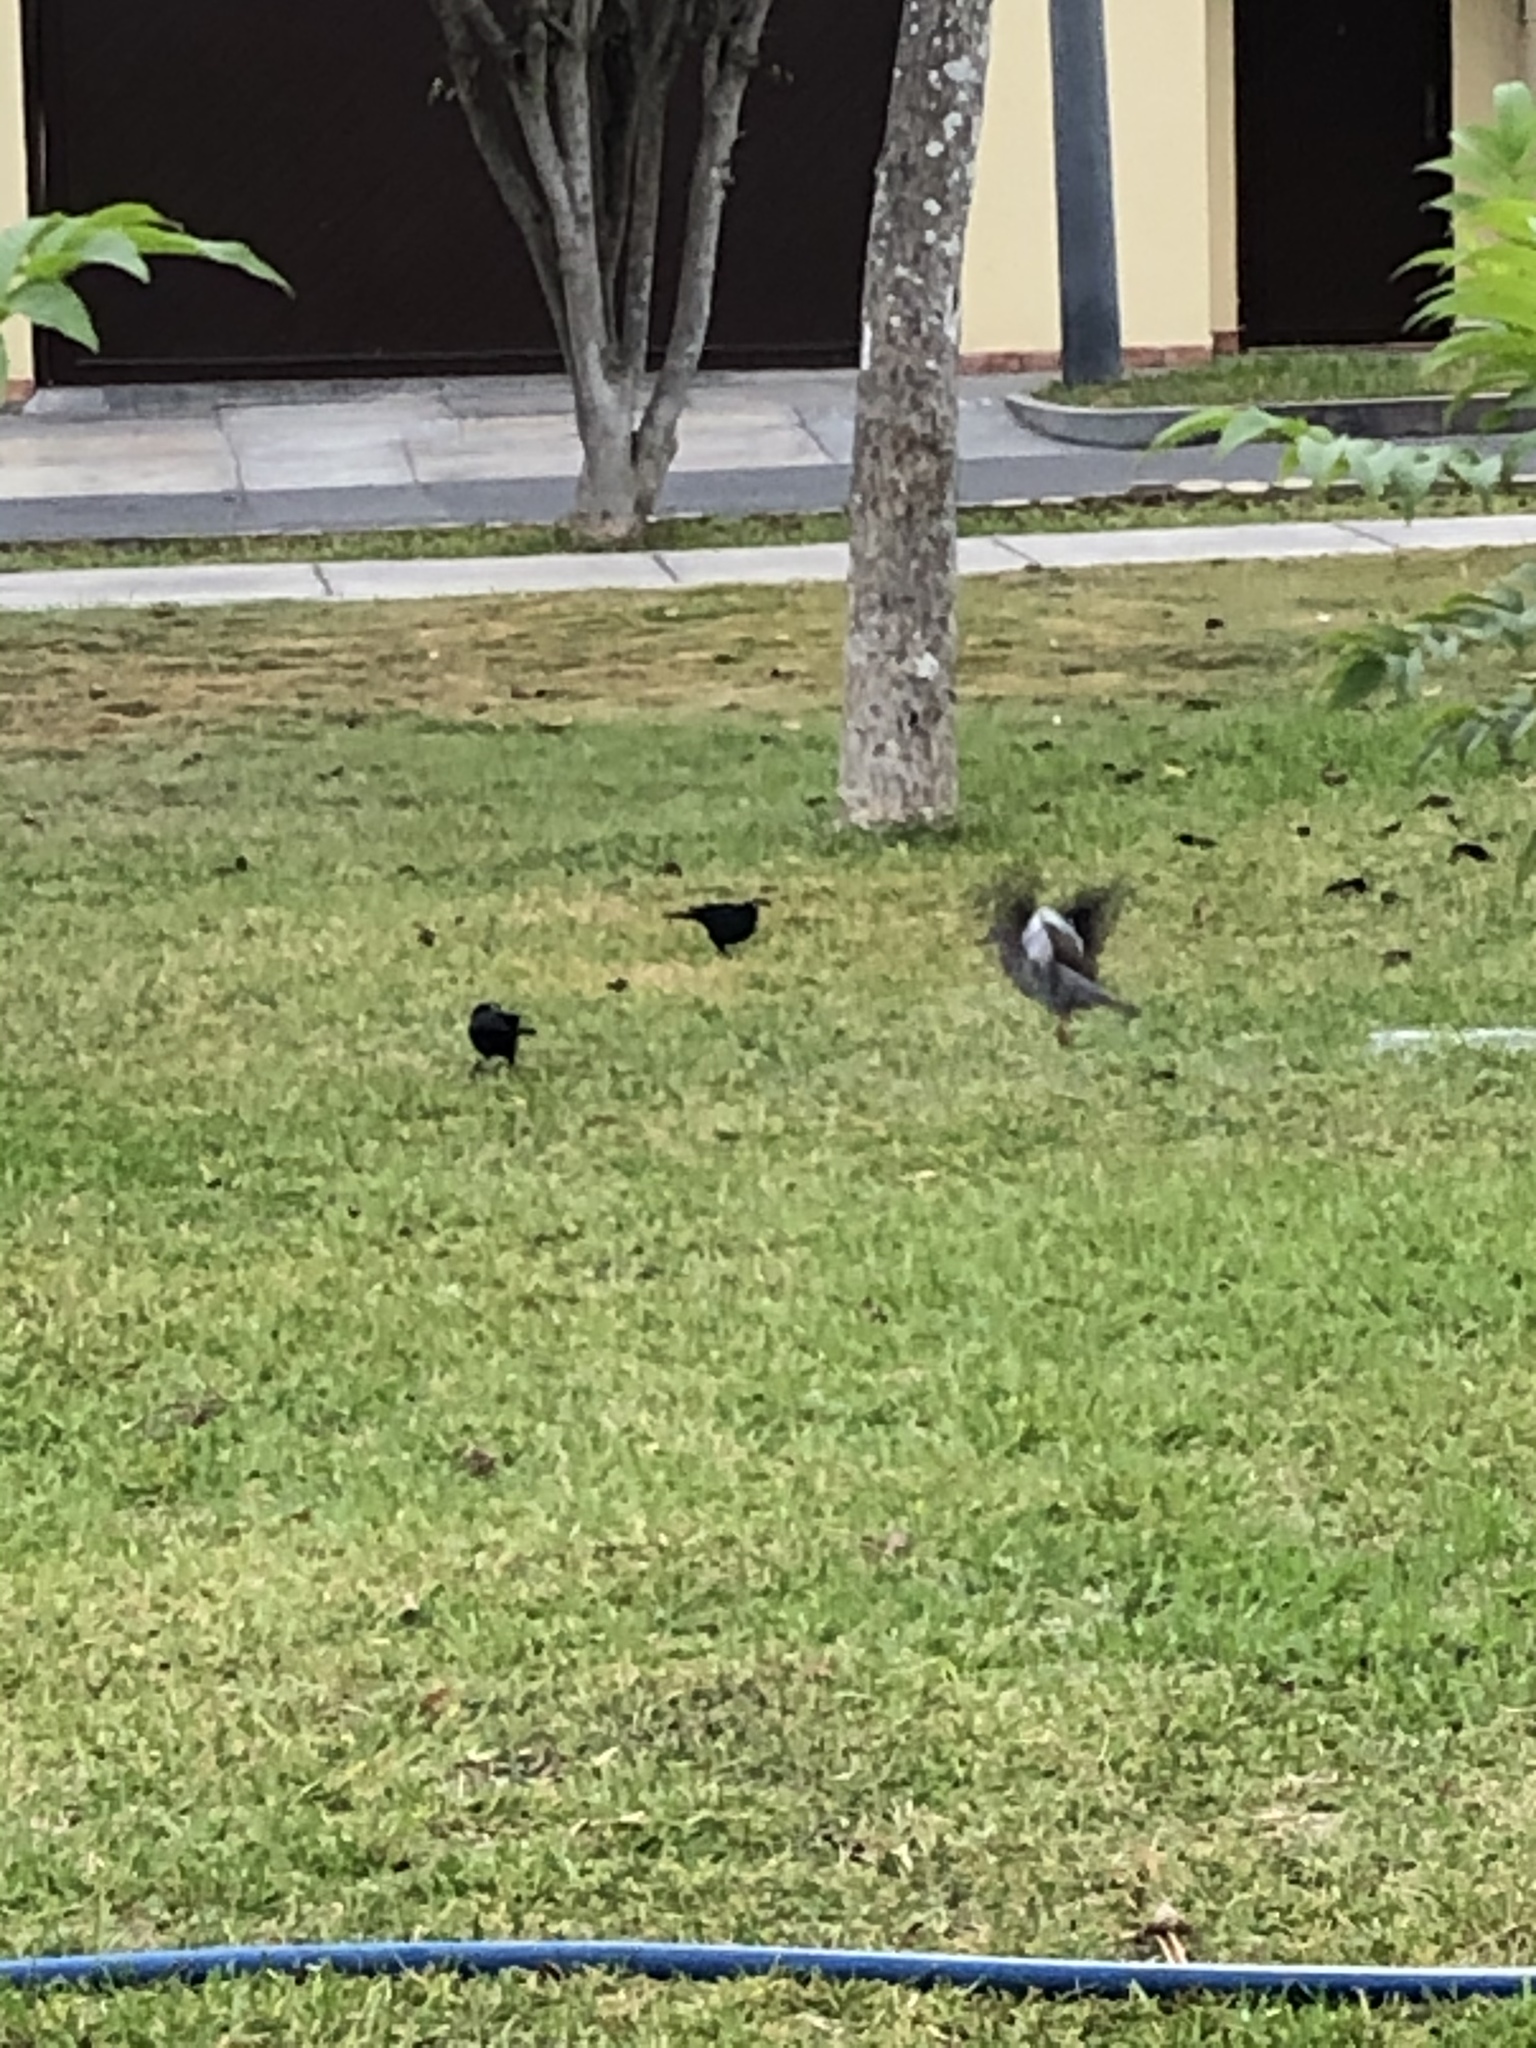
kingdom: Animalia
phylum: Chordata
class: Aves
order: Passeriformes
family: Icteridae
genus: Molothrus
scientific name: Molothrus bonariensis
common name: Shiny cowbird
